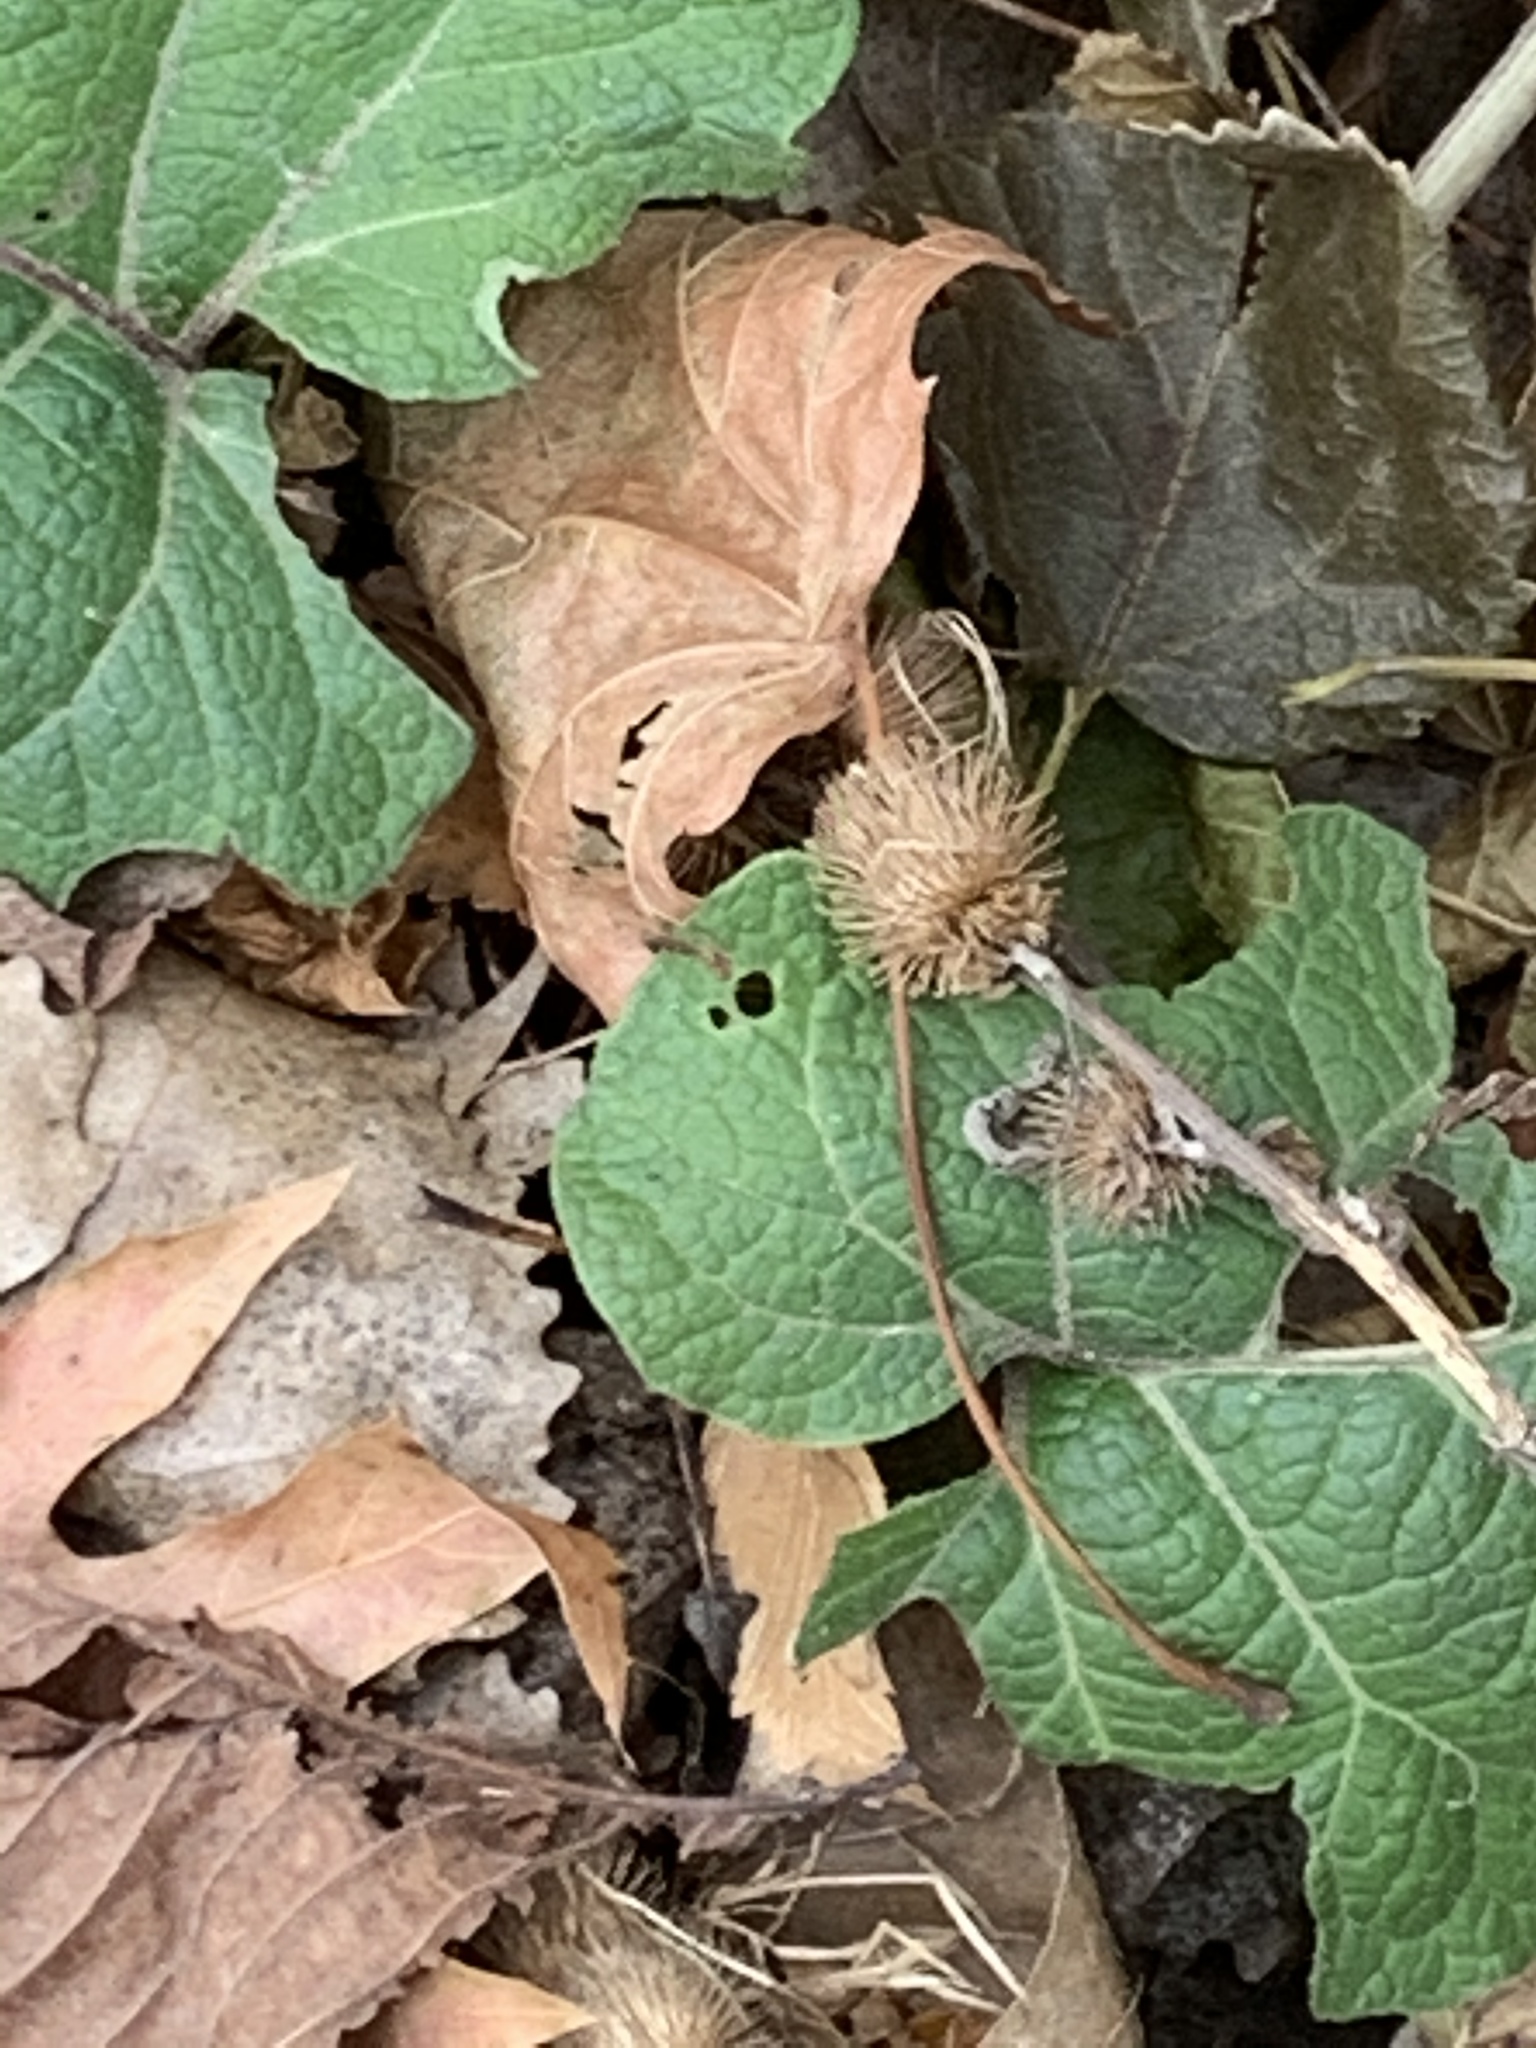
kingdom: Plantae
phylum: Tracheophyta
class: Magnoliopsida
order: Asterales
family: Asteraceae
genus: Arctium
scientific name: Arctium minus
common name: Lesser burdock
